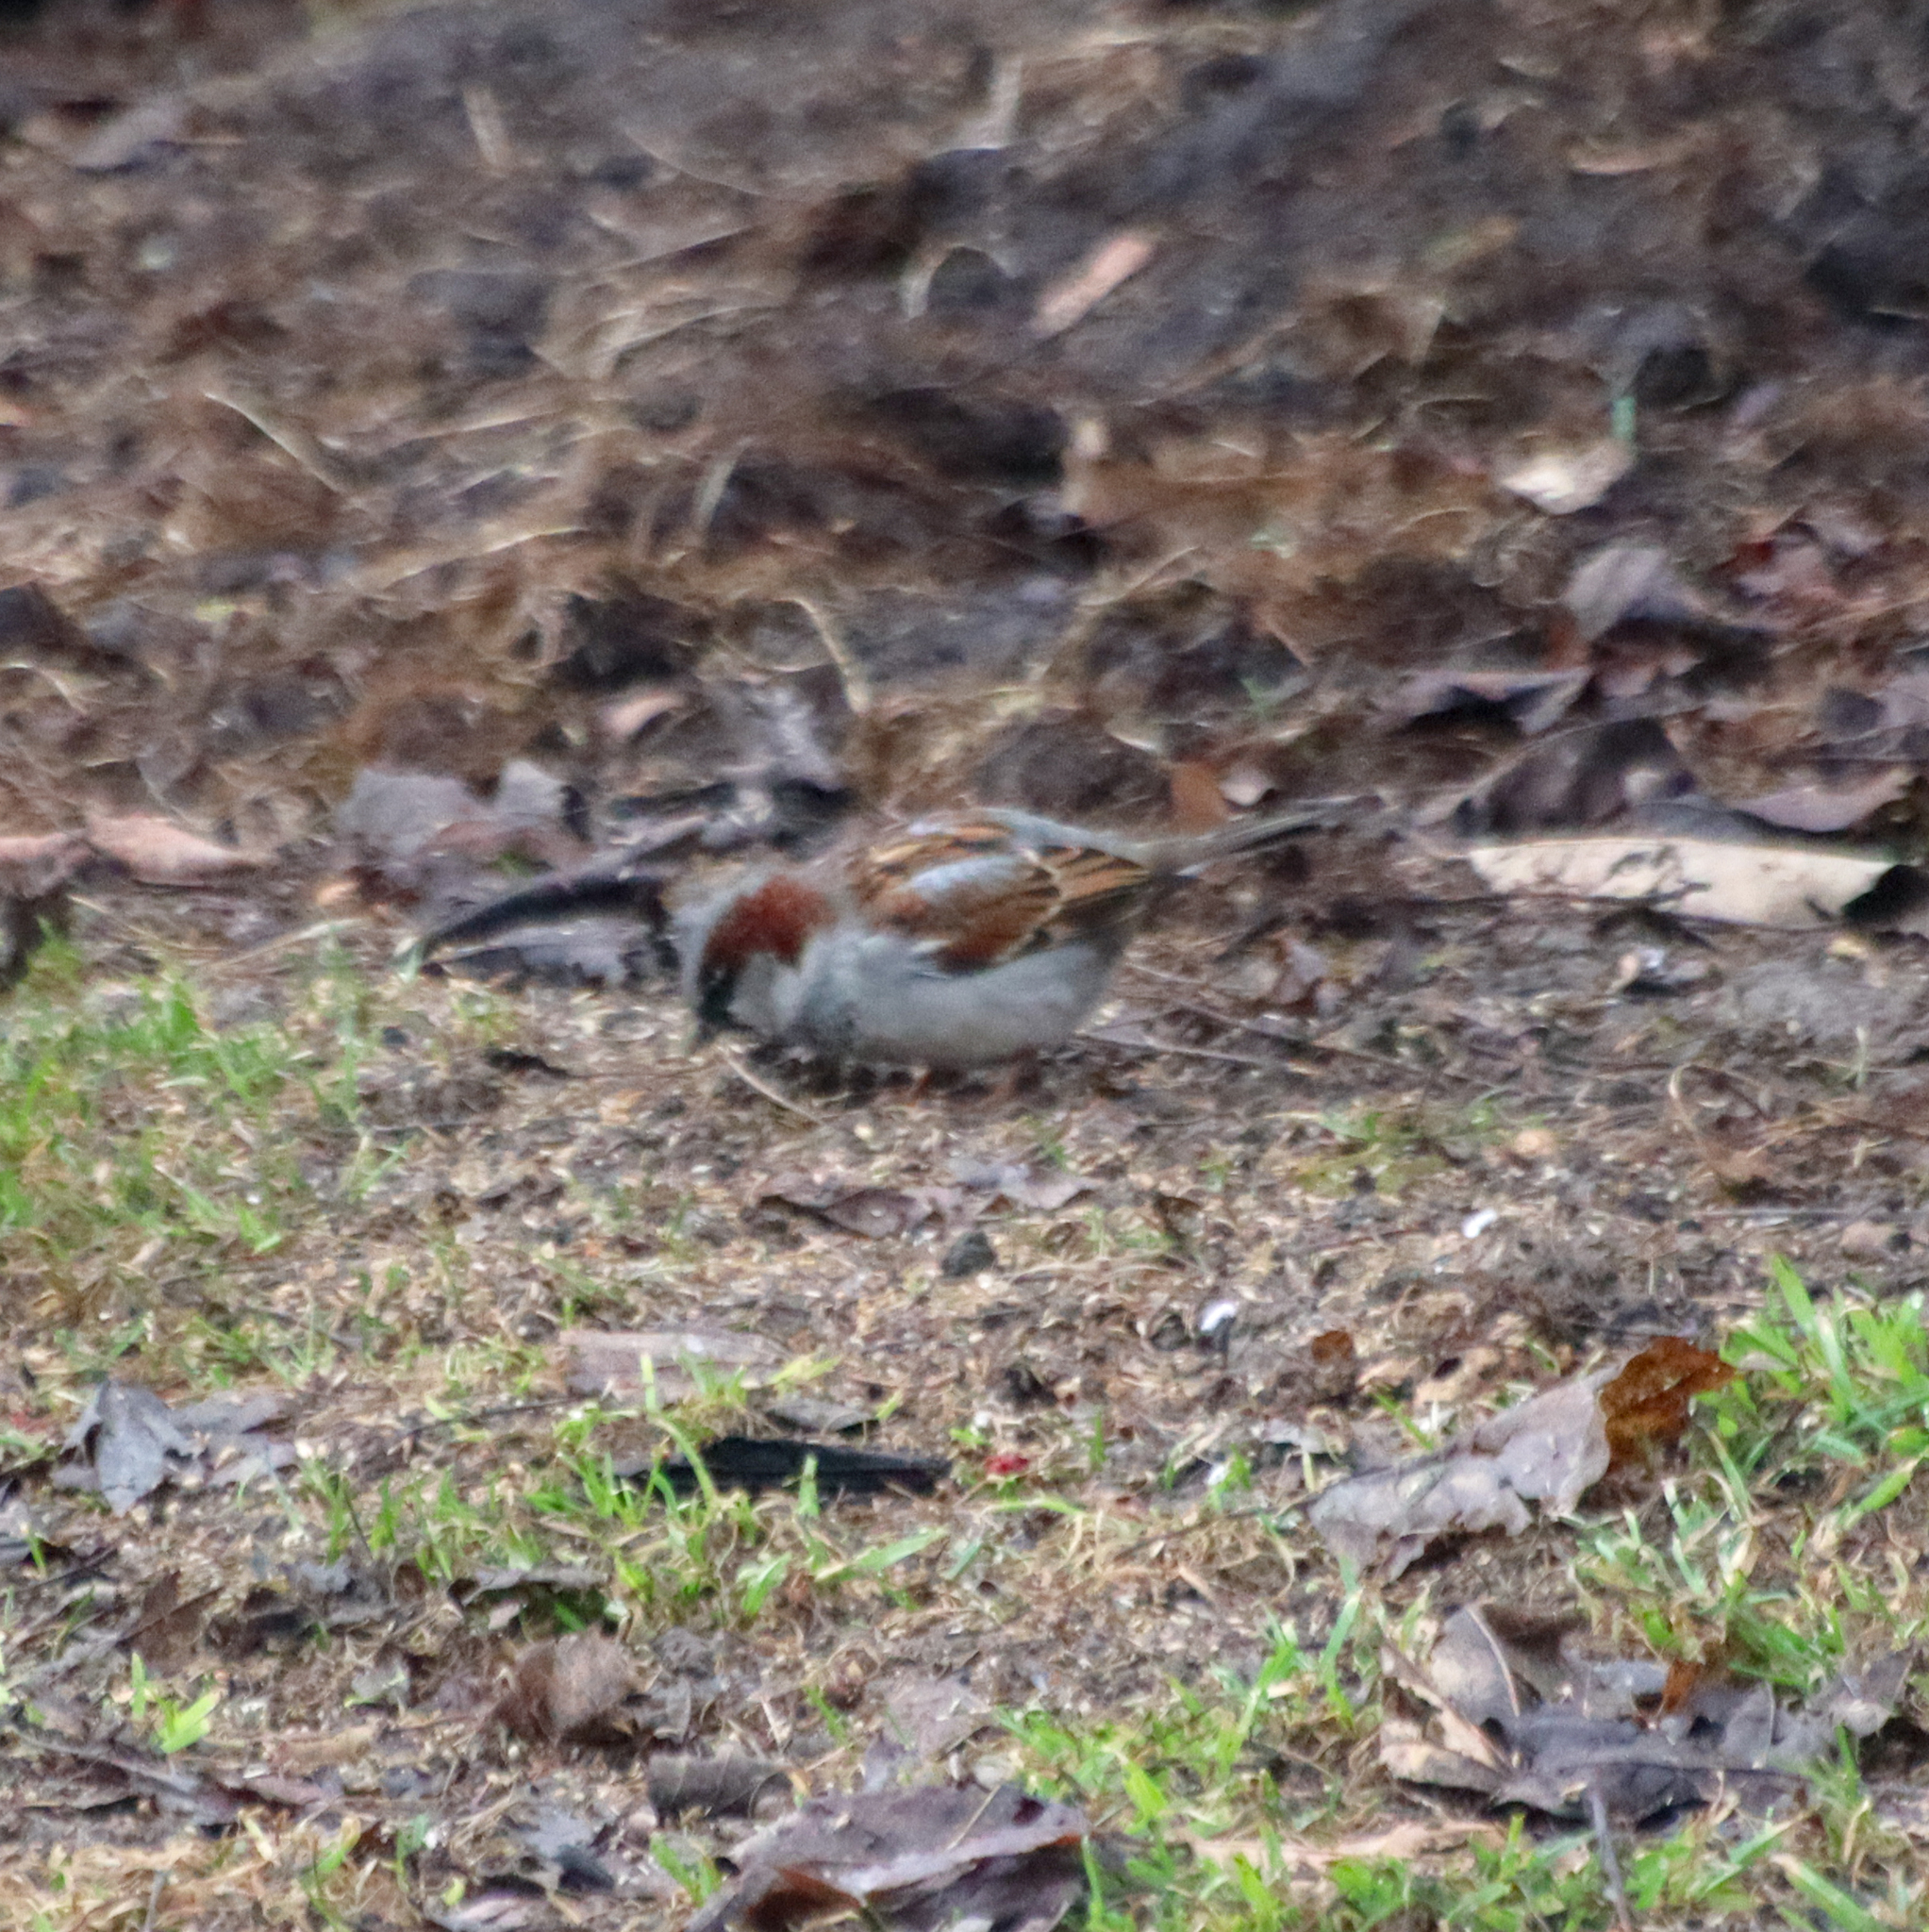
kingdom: Animalia
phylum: Chordata
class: Aves
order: Passeriformes
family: Passeridae
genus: Passer
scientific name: Passer domesticus
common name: House sparrow
